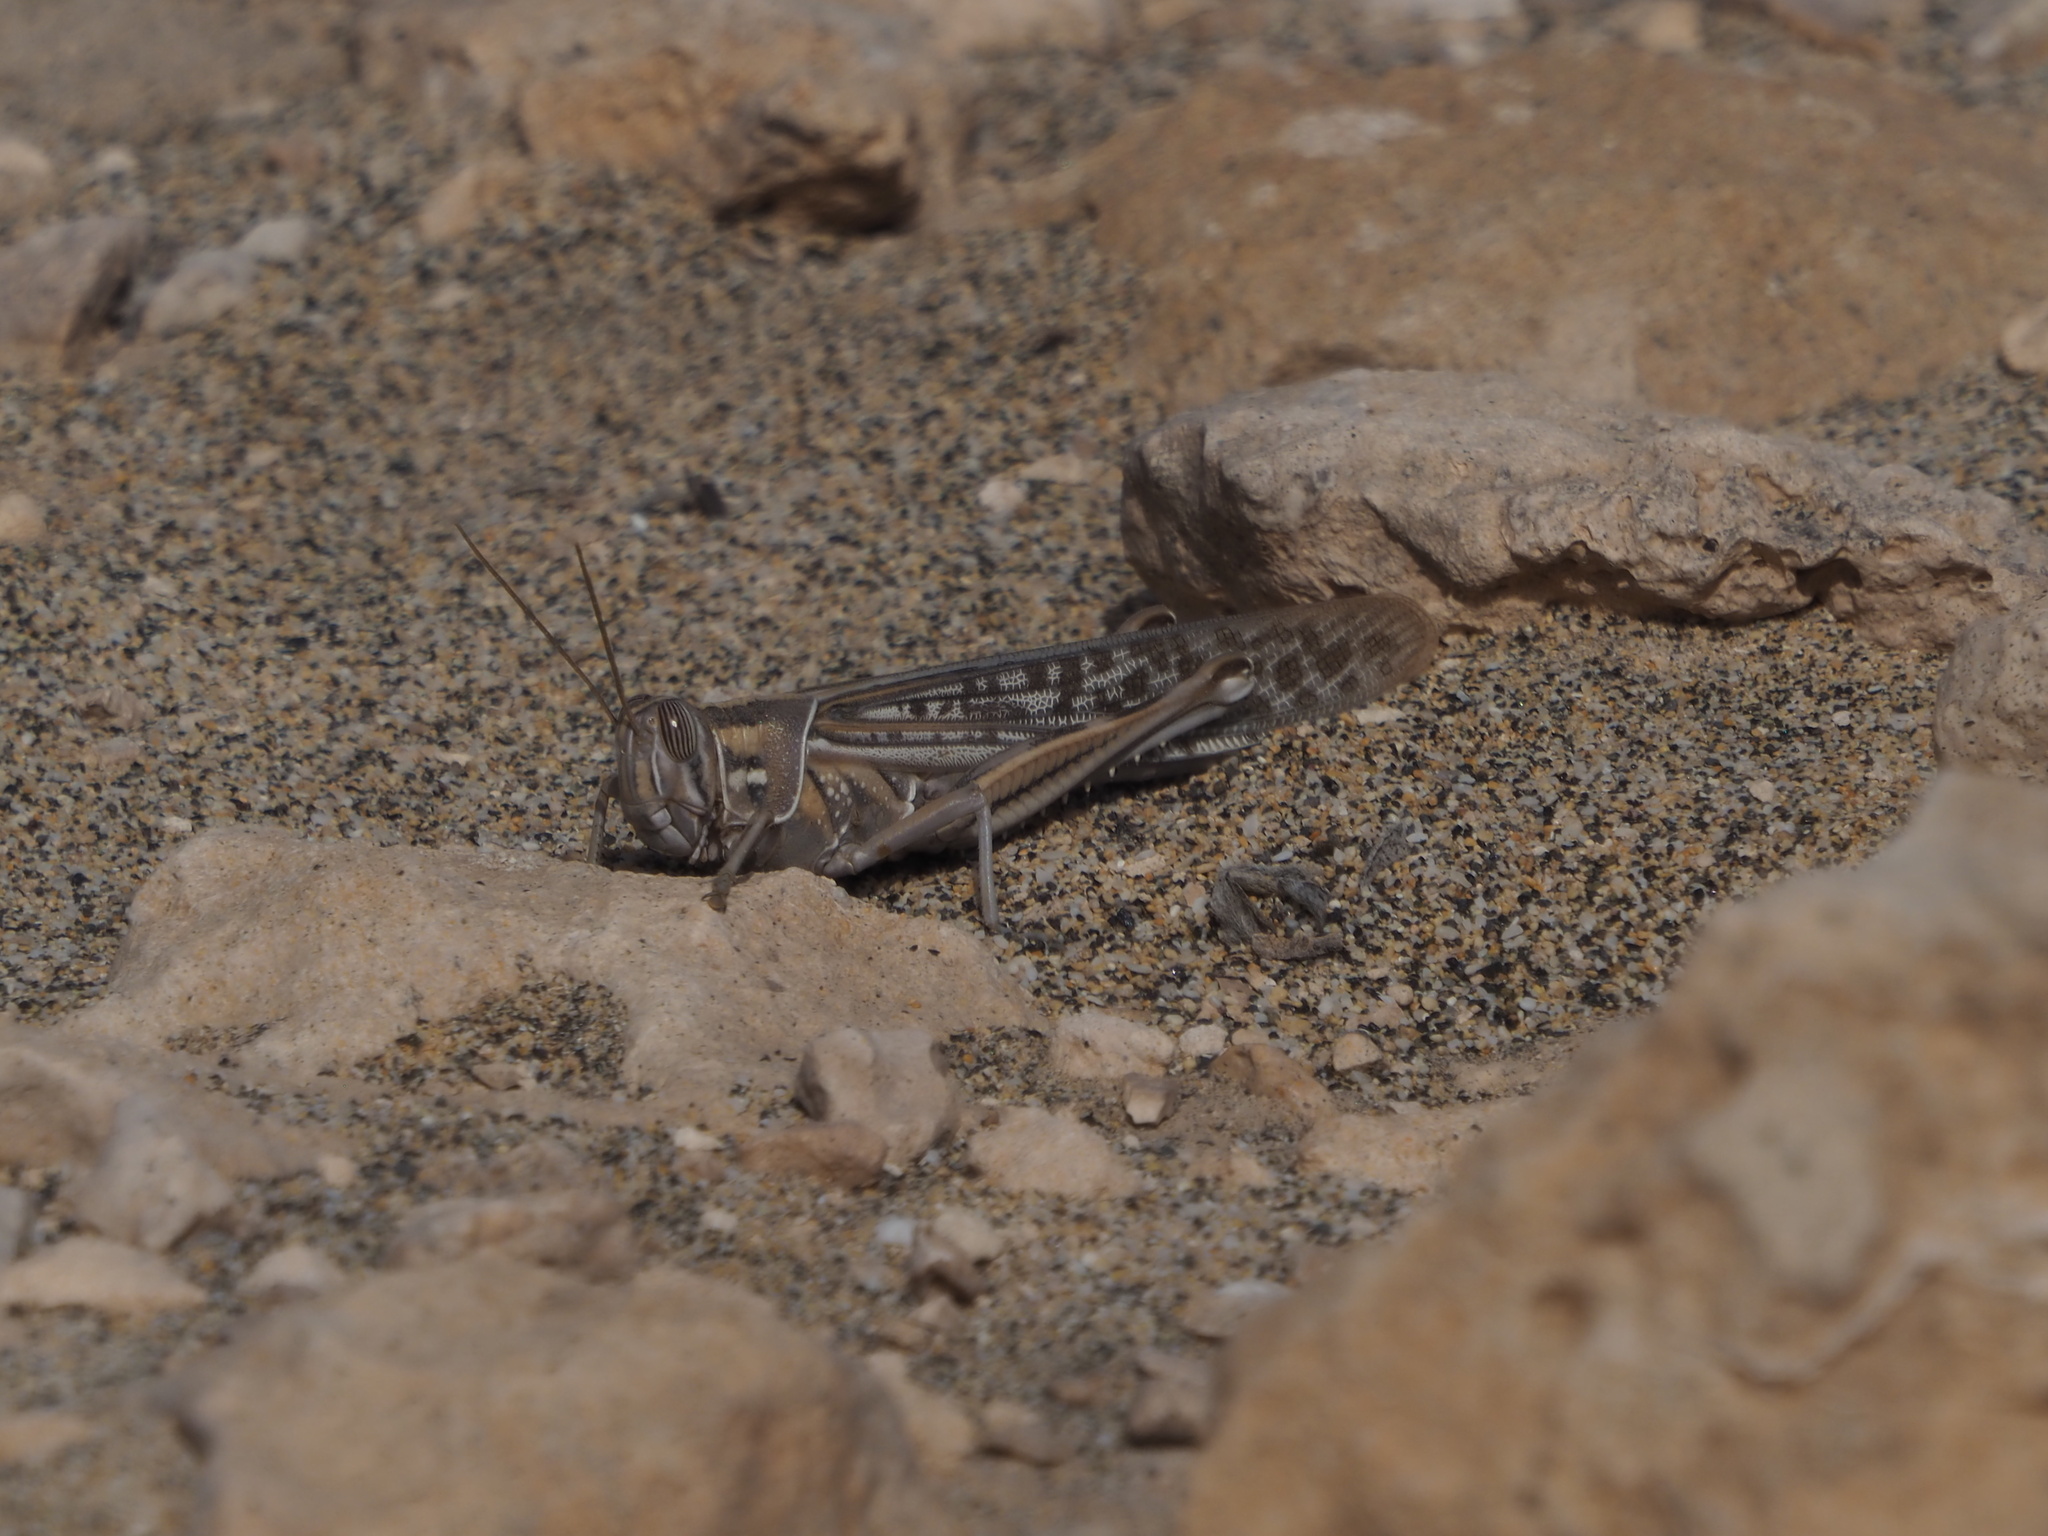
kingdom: Animalia
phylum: Arthropoda
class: Insecta
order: Orthoptera
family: Acrididae
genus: Schistocerca
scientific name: Schistocerca gregaria
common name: Desert locust
